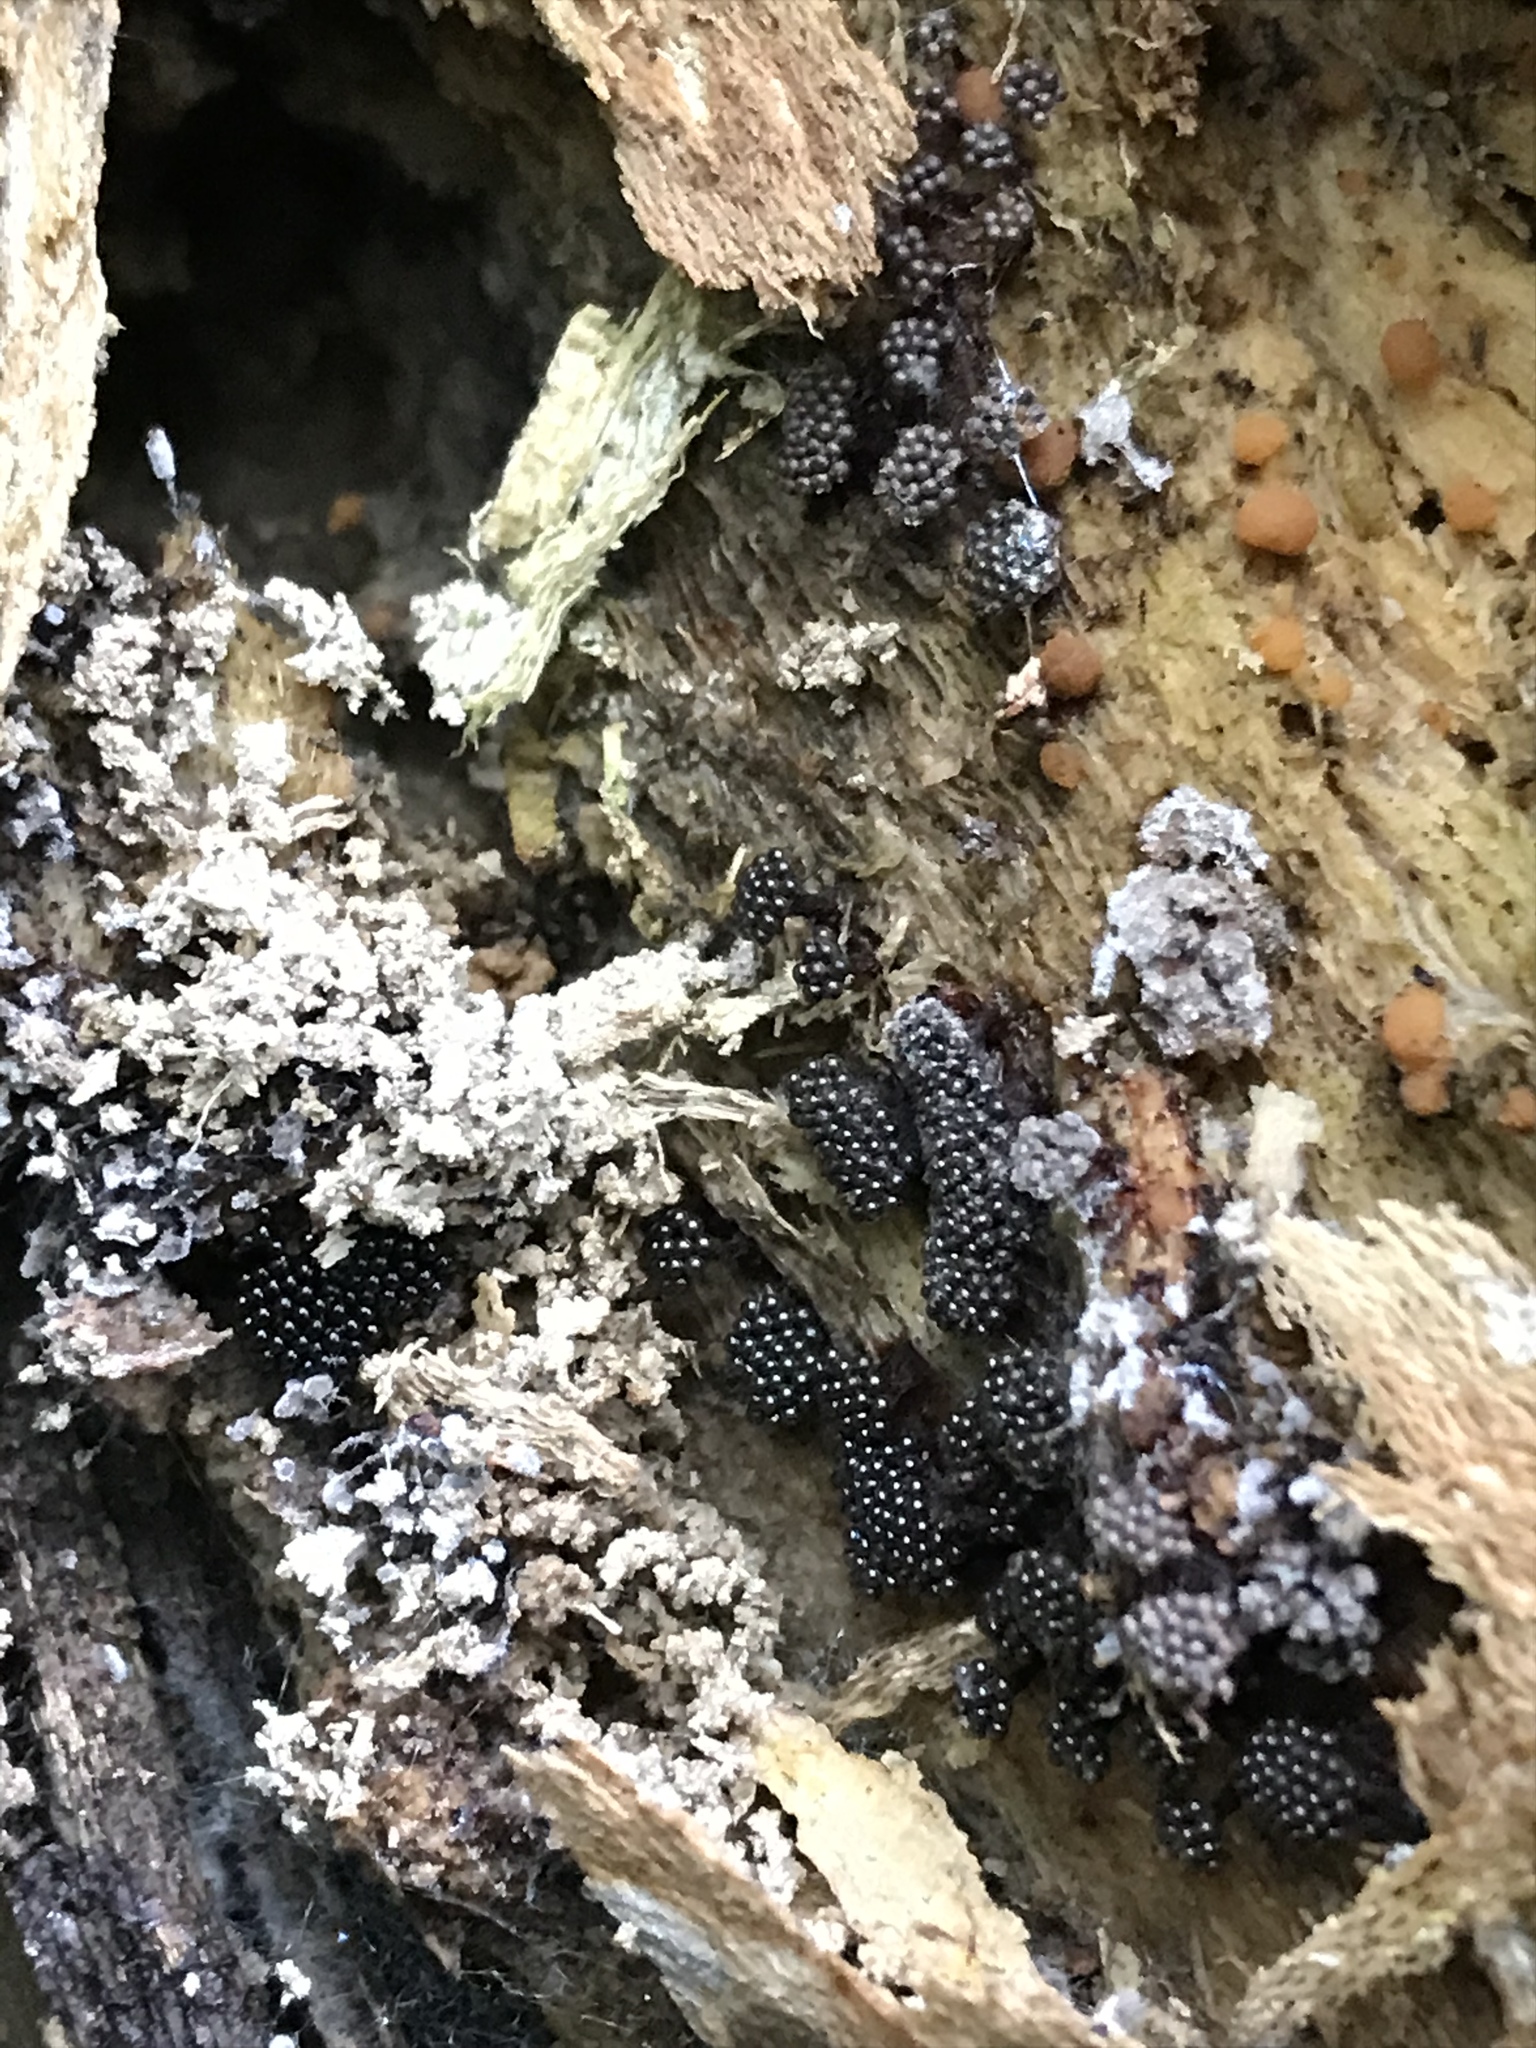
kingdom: Protozoa
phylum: Mycetozoa
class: Myxomycetes
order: Trichiales
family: Trichiaceae
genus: Metatrichia
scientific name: Metatrichia vesparia
